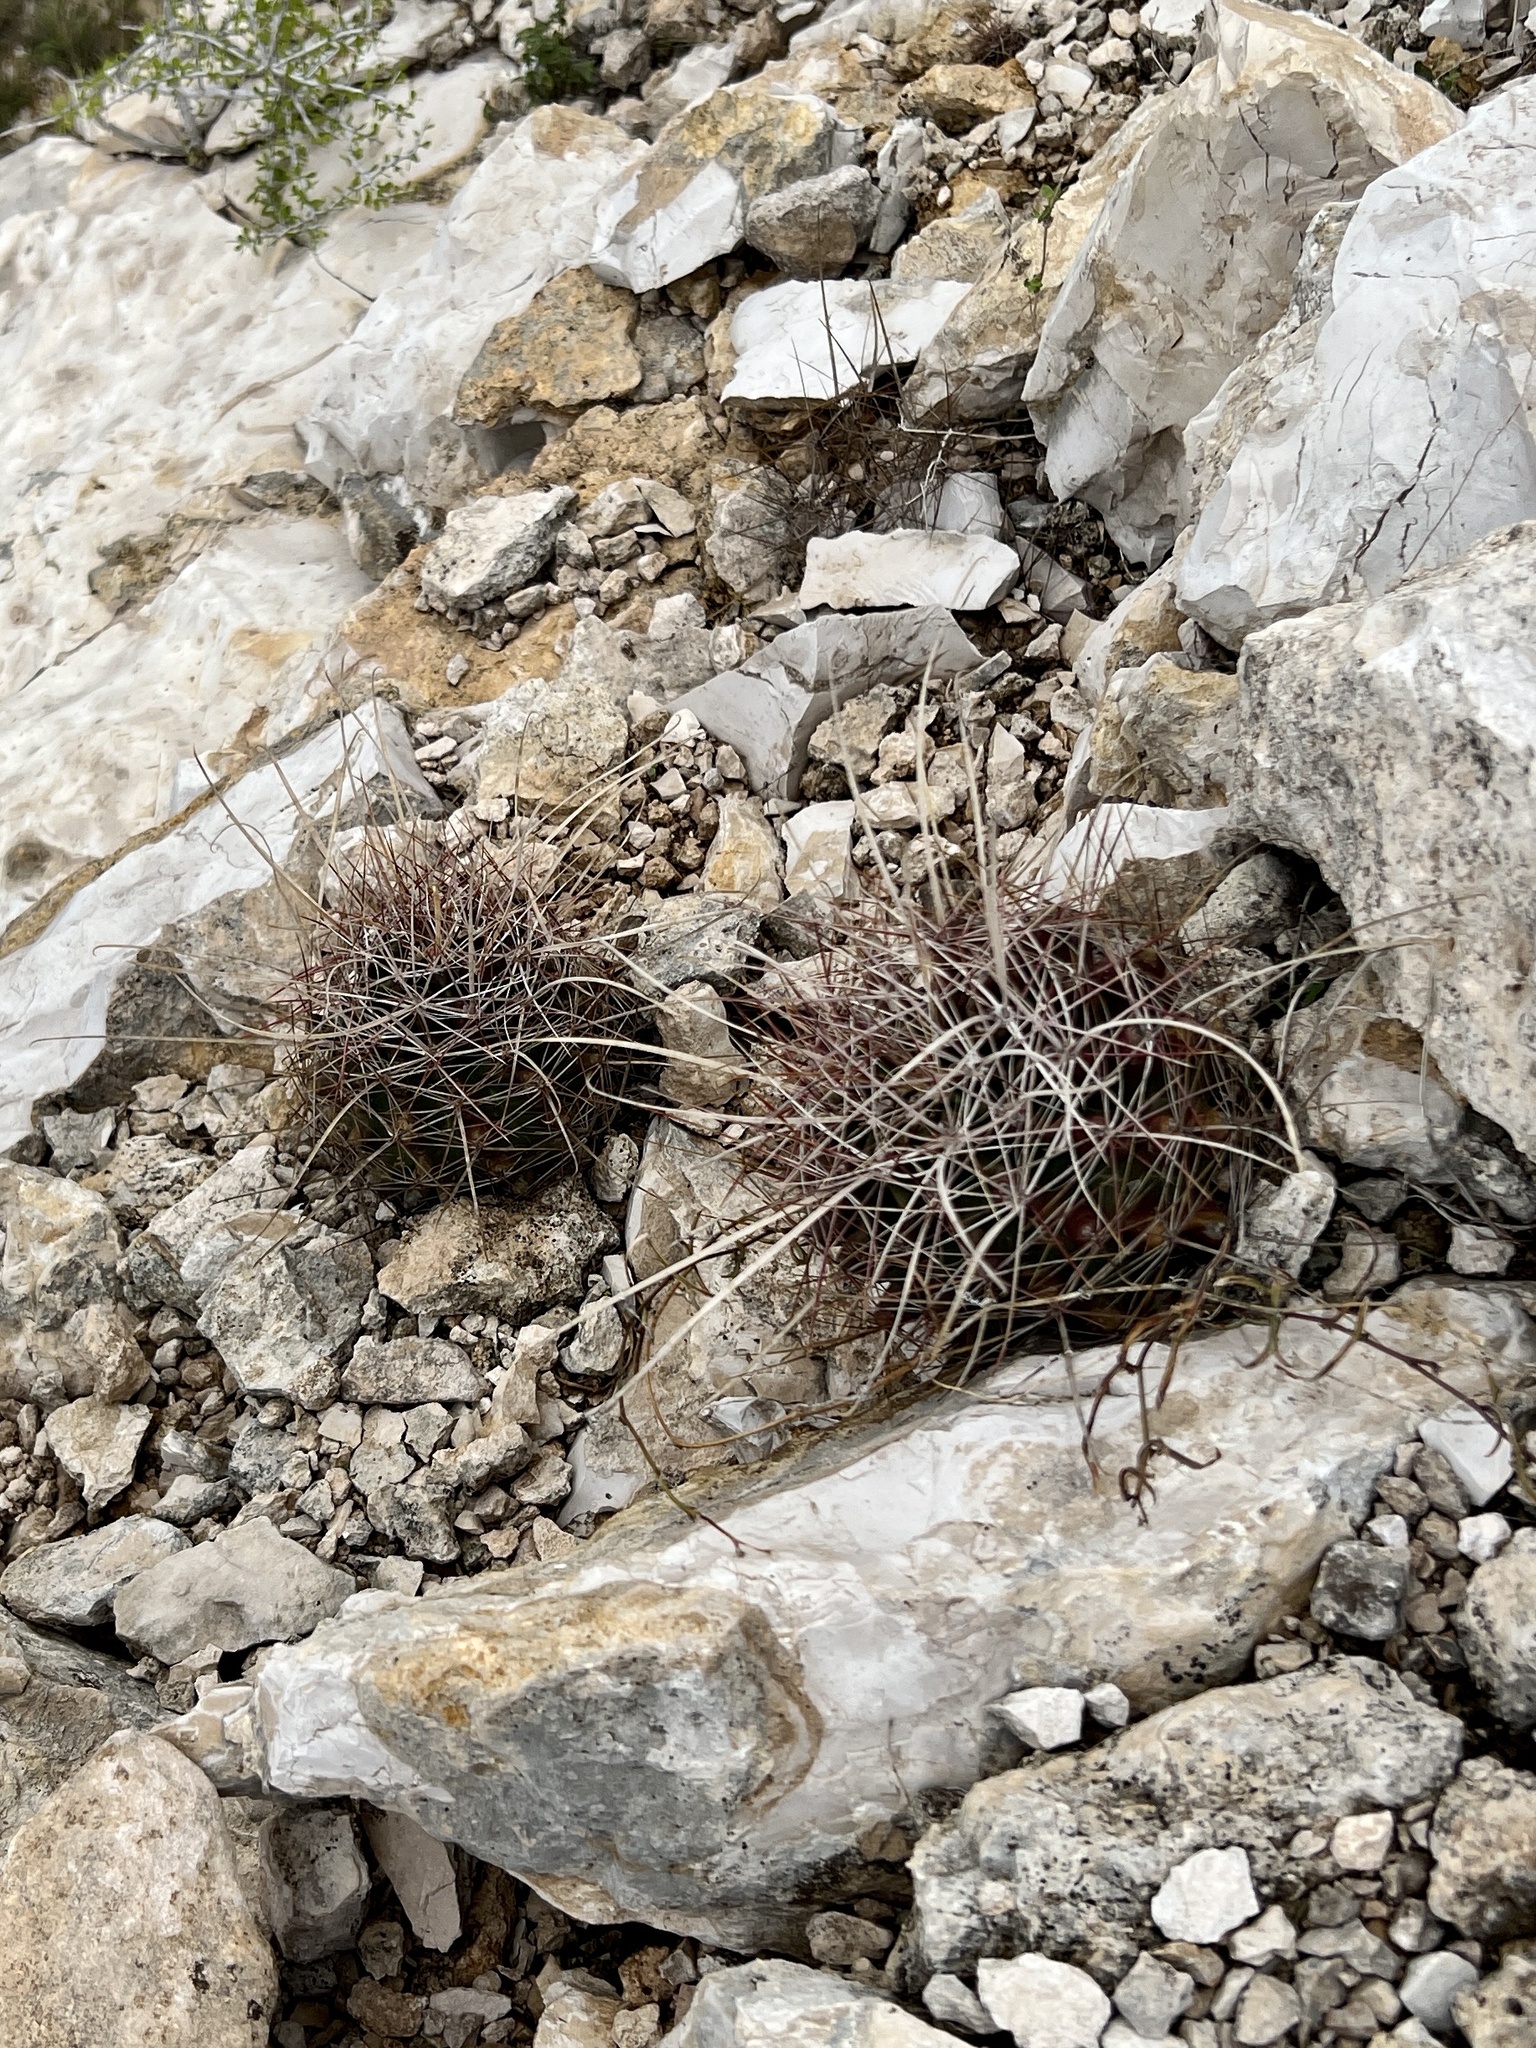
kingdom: Plantae
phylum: Tracheophyta
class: Magnoliopsida
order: Caryophyllales
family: Cactaceae
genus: Bisnaga
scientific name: Bisnaga hamatacantha
